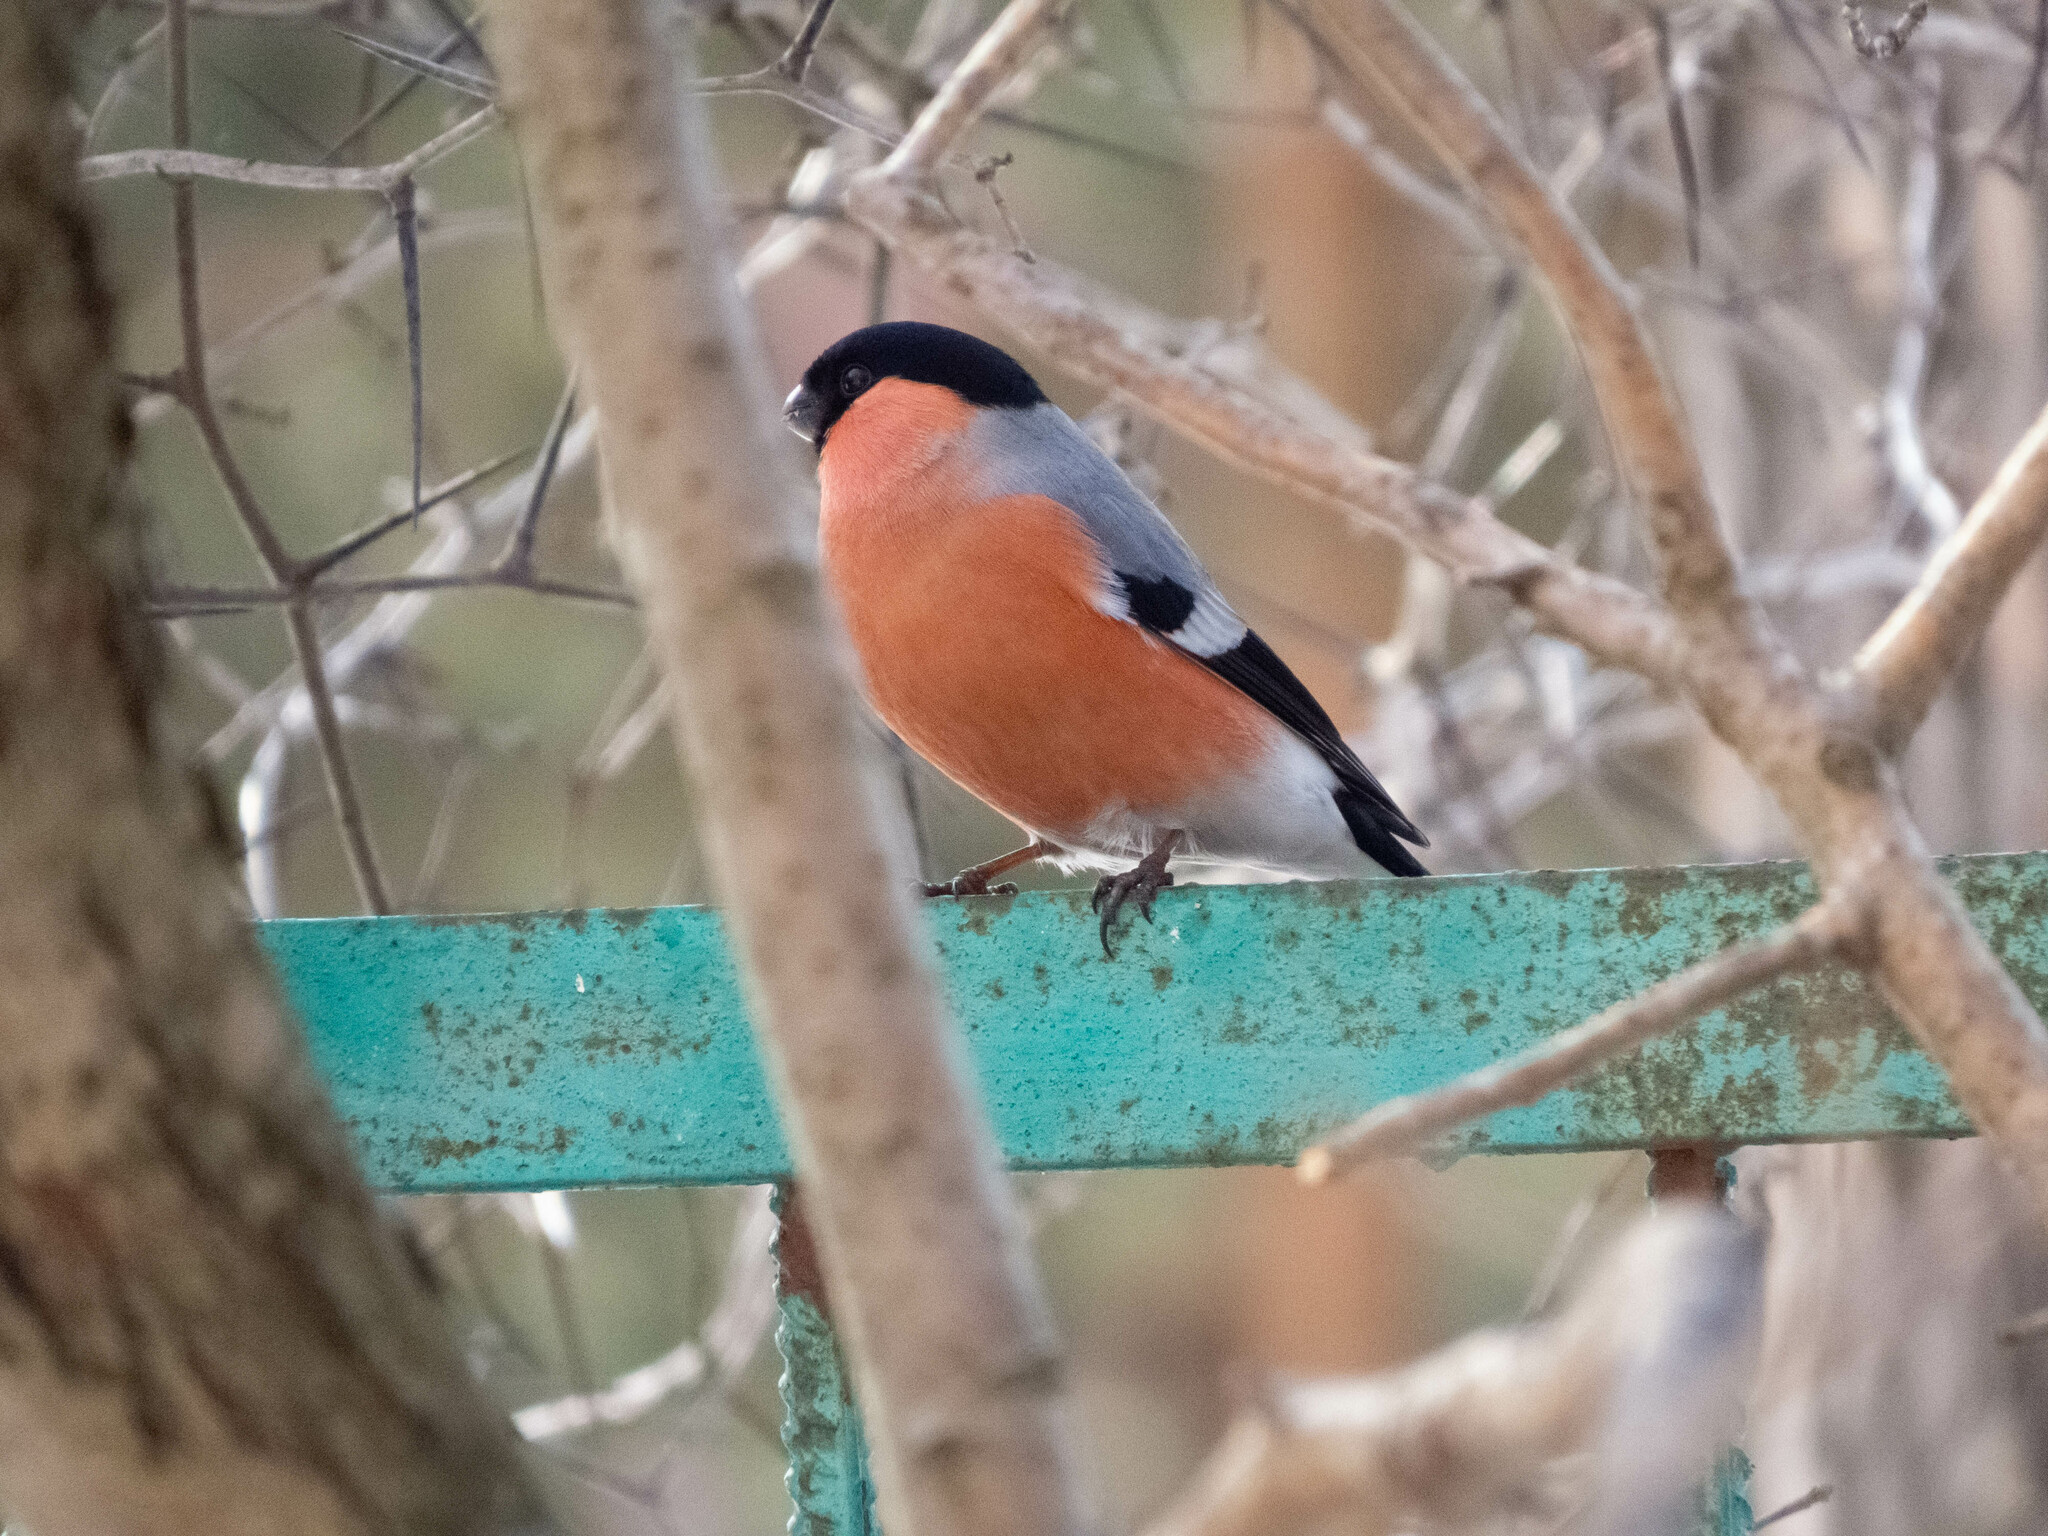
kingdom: Animalia
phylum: Chordata
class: Aves
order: Passeriformes
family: Fringillidae
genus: Pyrrhula
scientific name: Pyrrhula pyrrhula
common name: Eurasian bullfinch
